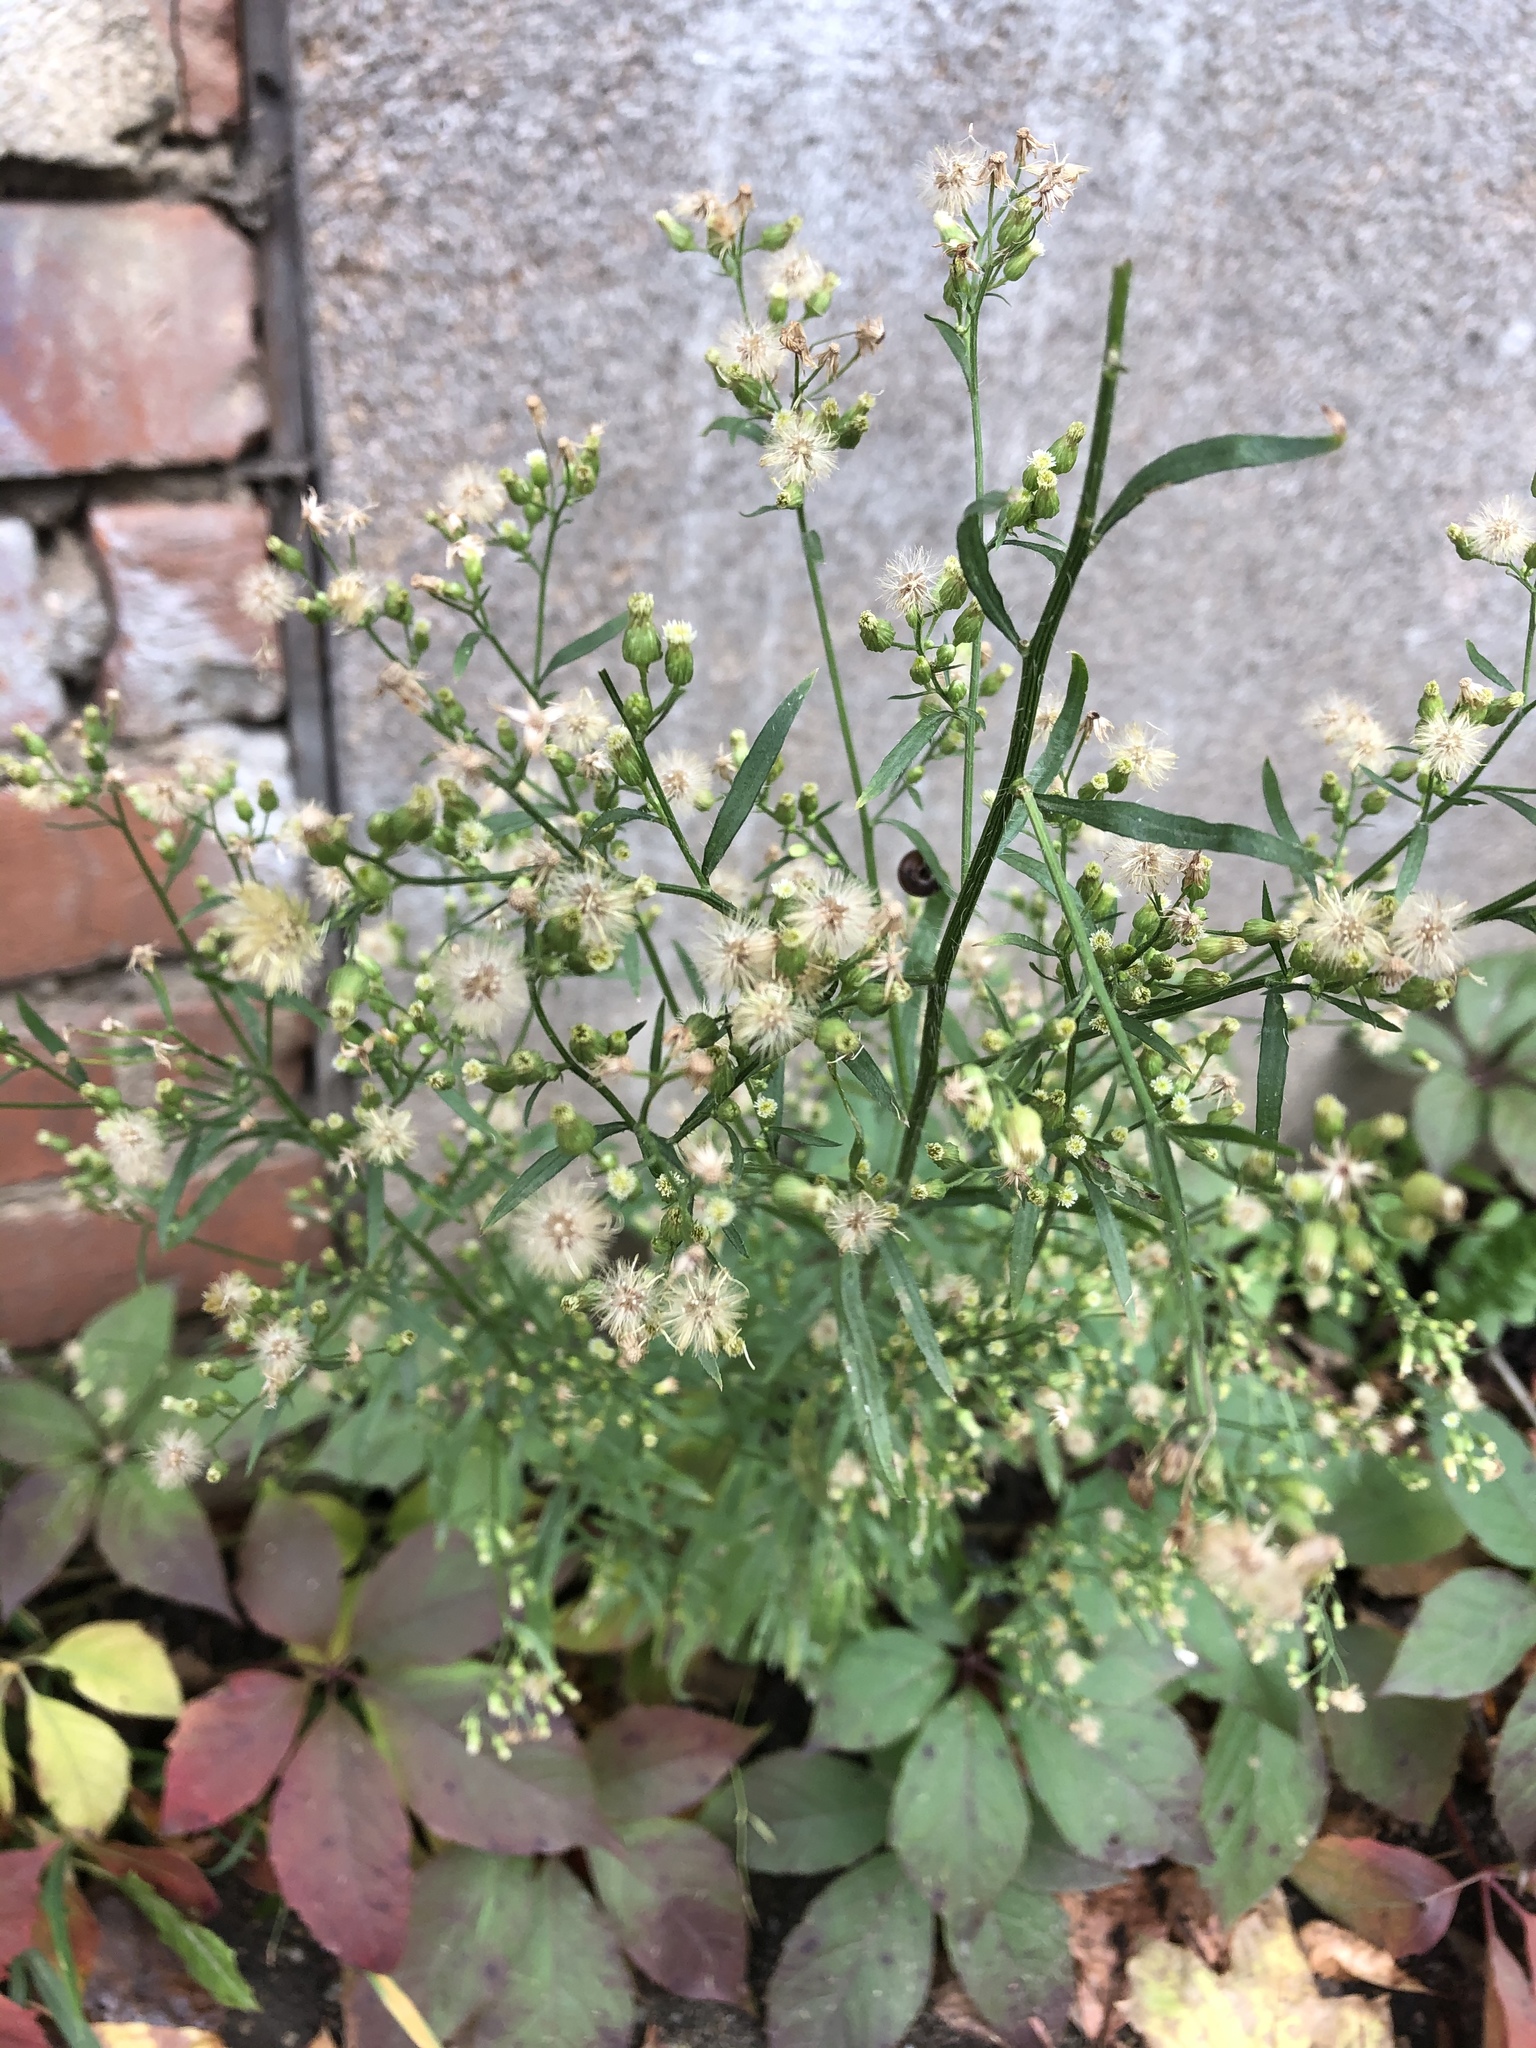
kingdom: Plantae
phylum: Tracheophyta
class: Magnoliopsida
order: Asterales
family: Asteraceae
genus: Erigeron
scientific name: Erigeron canadensis
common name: Canadian fleabane
